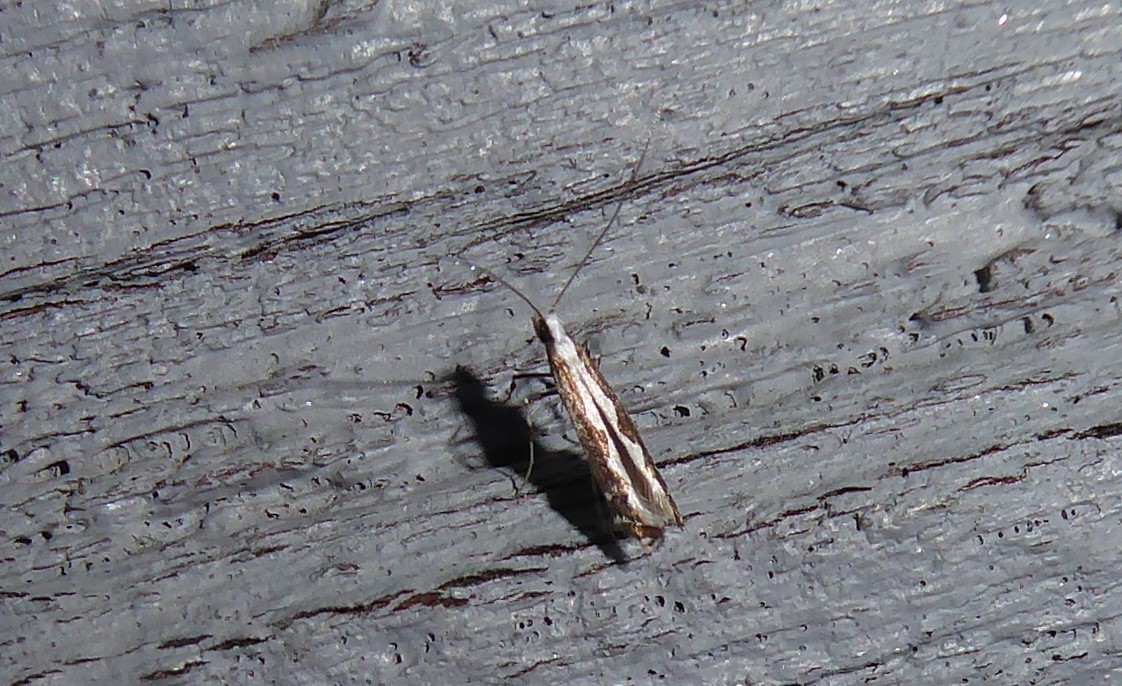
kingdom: Animalia
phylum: Arthropoda
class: Insecta
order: Lepidoptera
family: Gracillariidae
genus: Dialectica
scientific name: Dialectica scalariella
